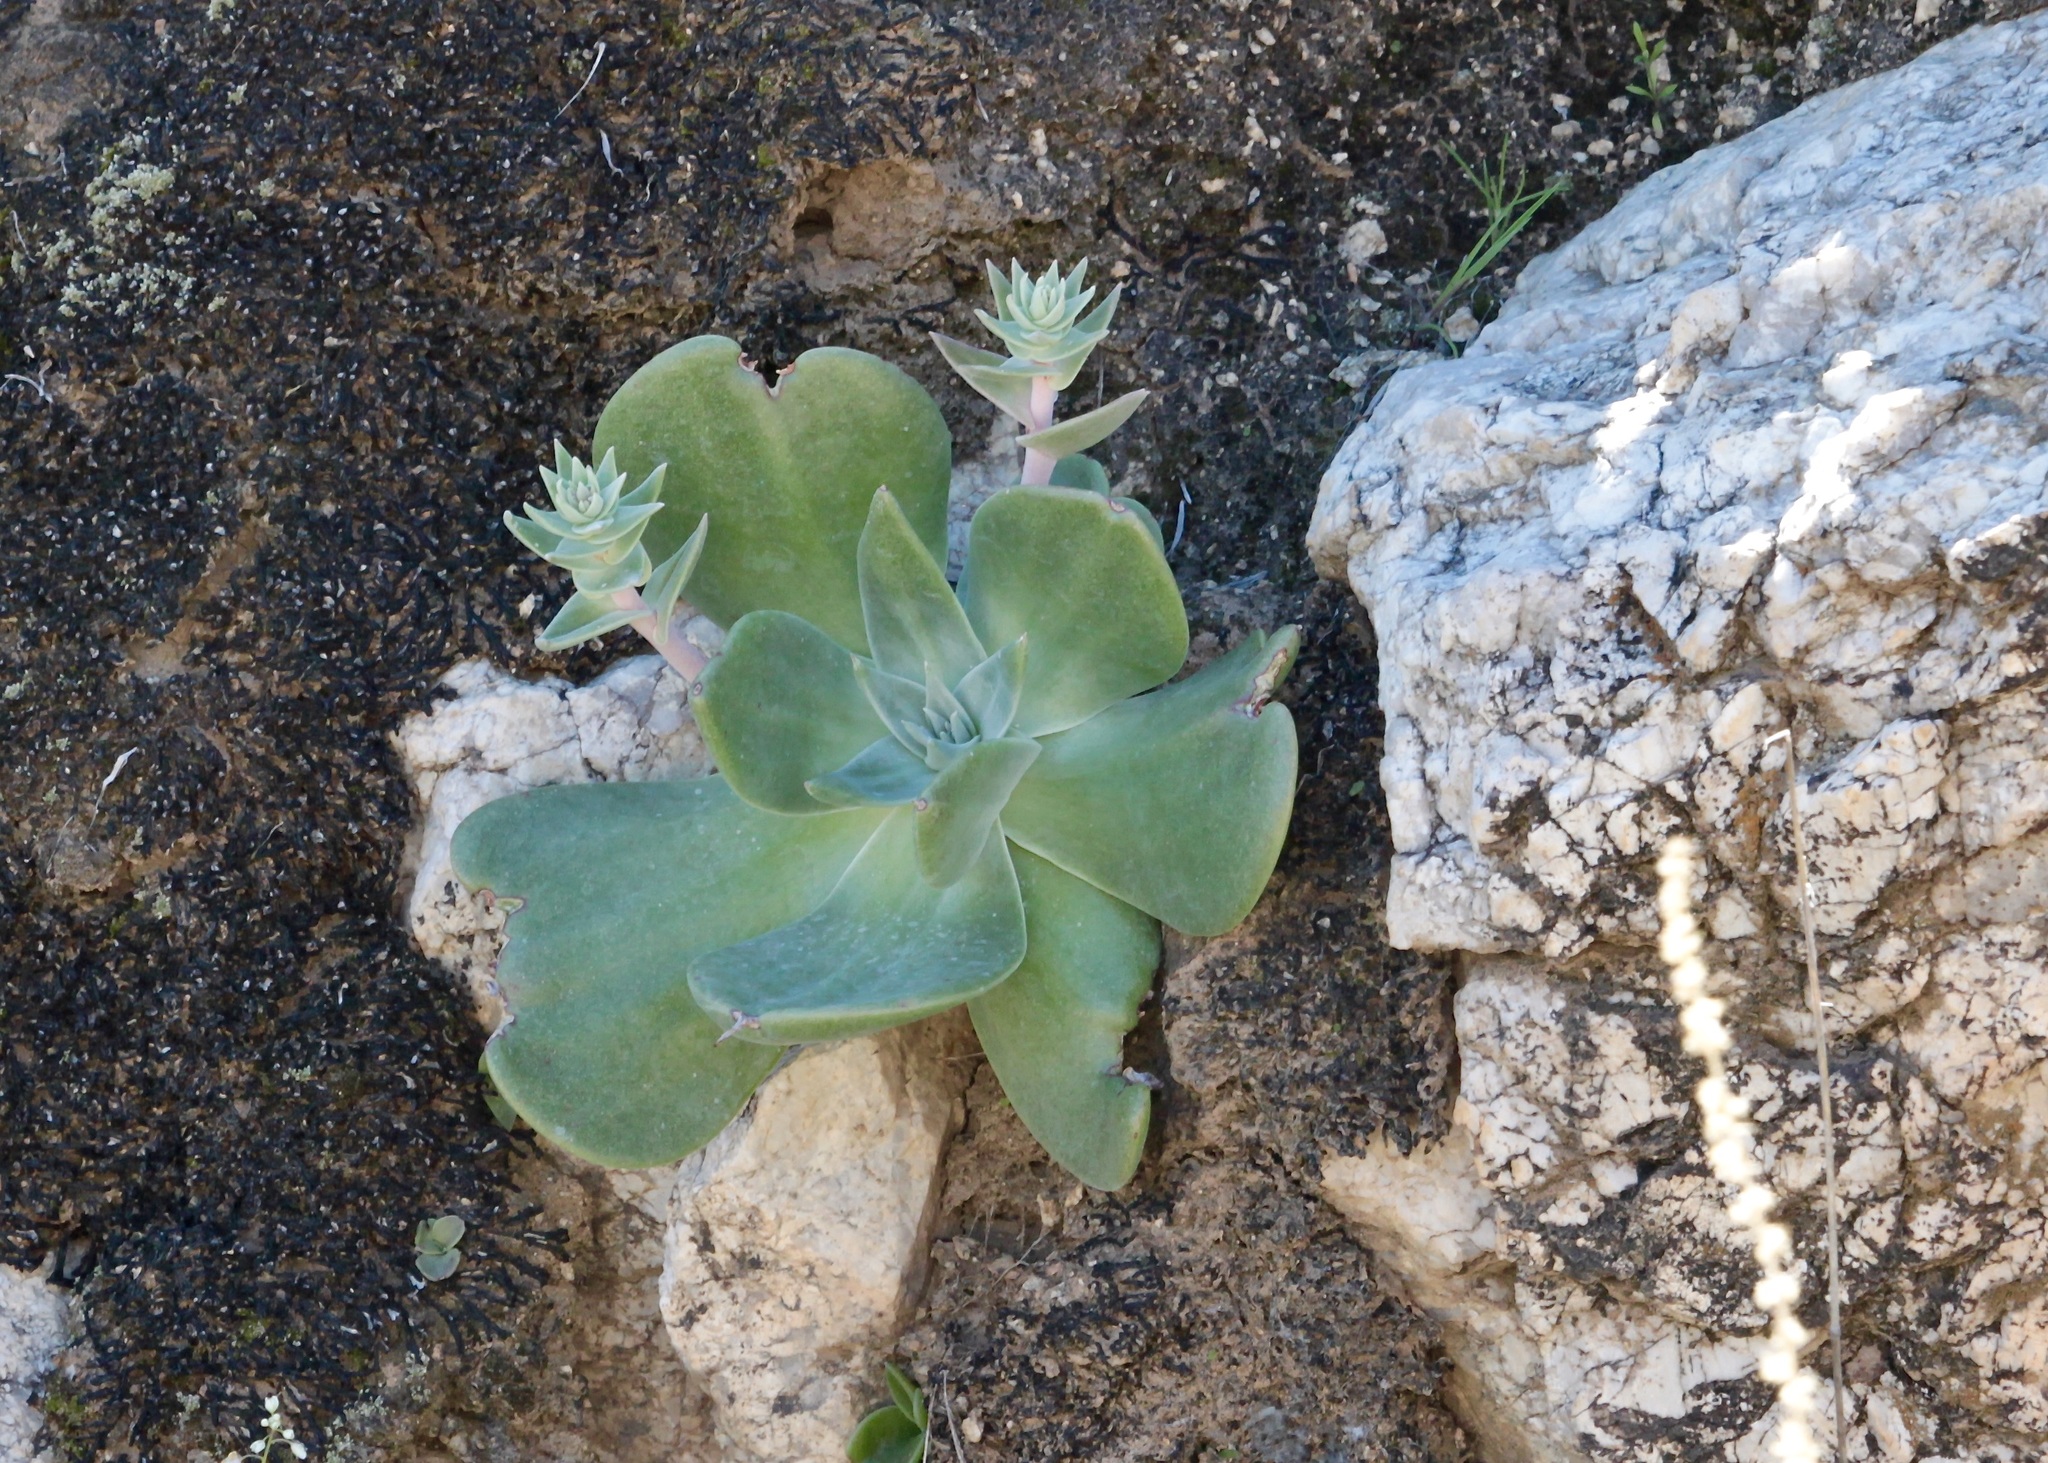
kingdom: Plantae
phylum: Tracheophyta
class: Magnoliopsida
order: Saxifragales
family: Crassulaceae
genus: Dudleya
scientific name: Dudleya arizonica
